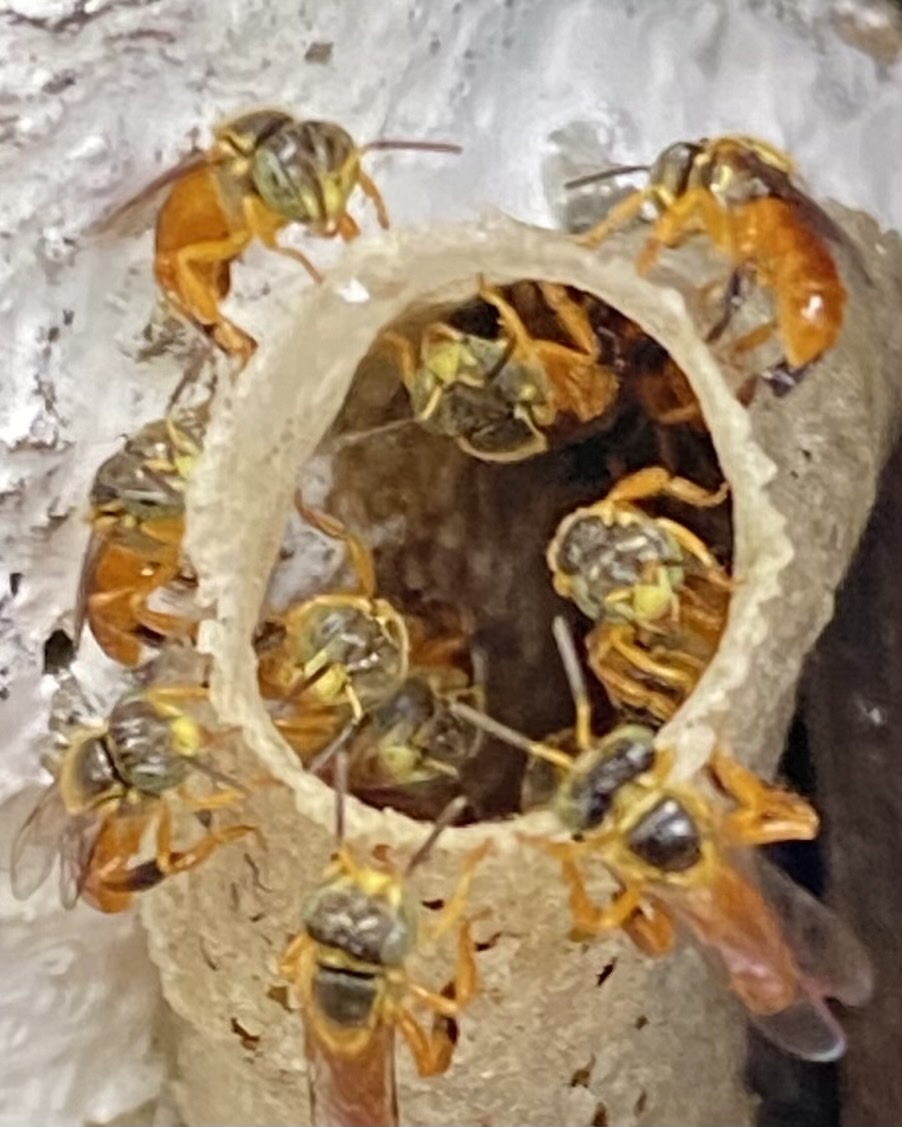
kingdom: Animalia
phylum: Arthropoda
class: Insecta
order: Hymenoptera
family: Apidae
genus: Tetragonisca
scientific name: Tetragonisca angustula
